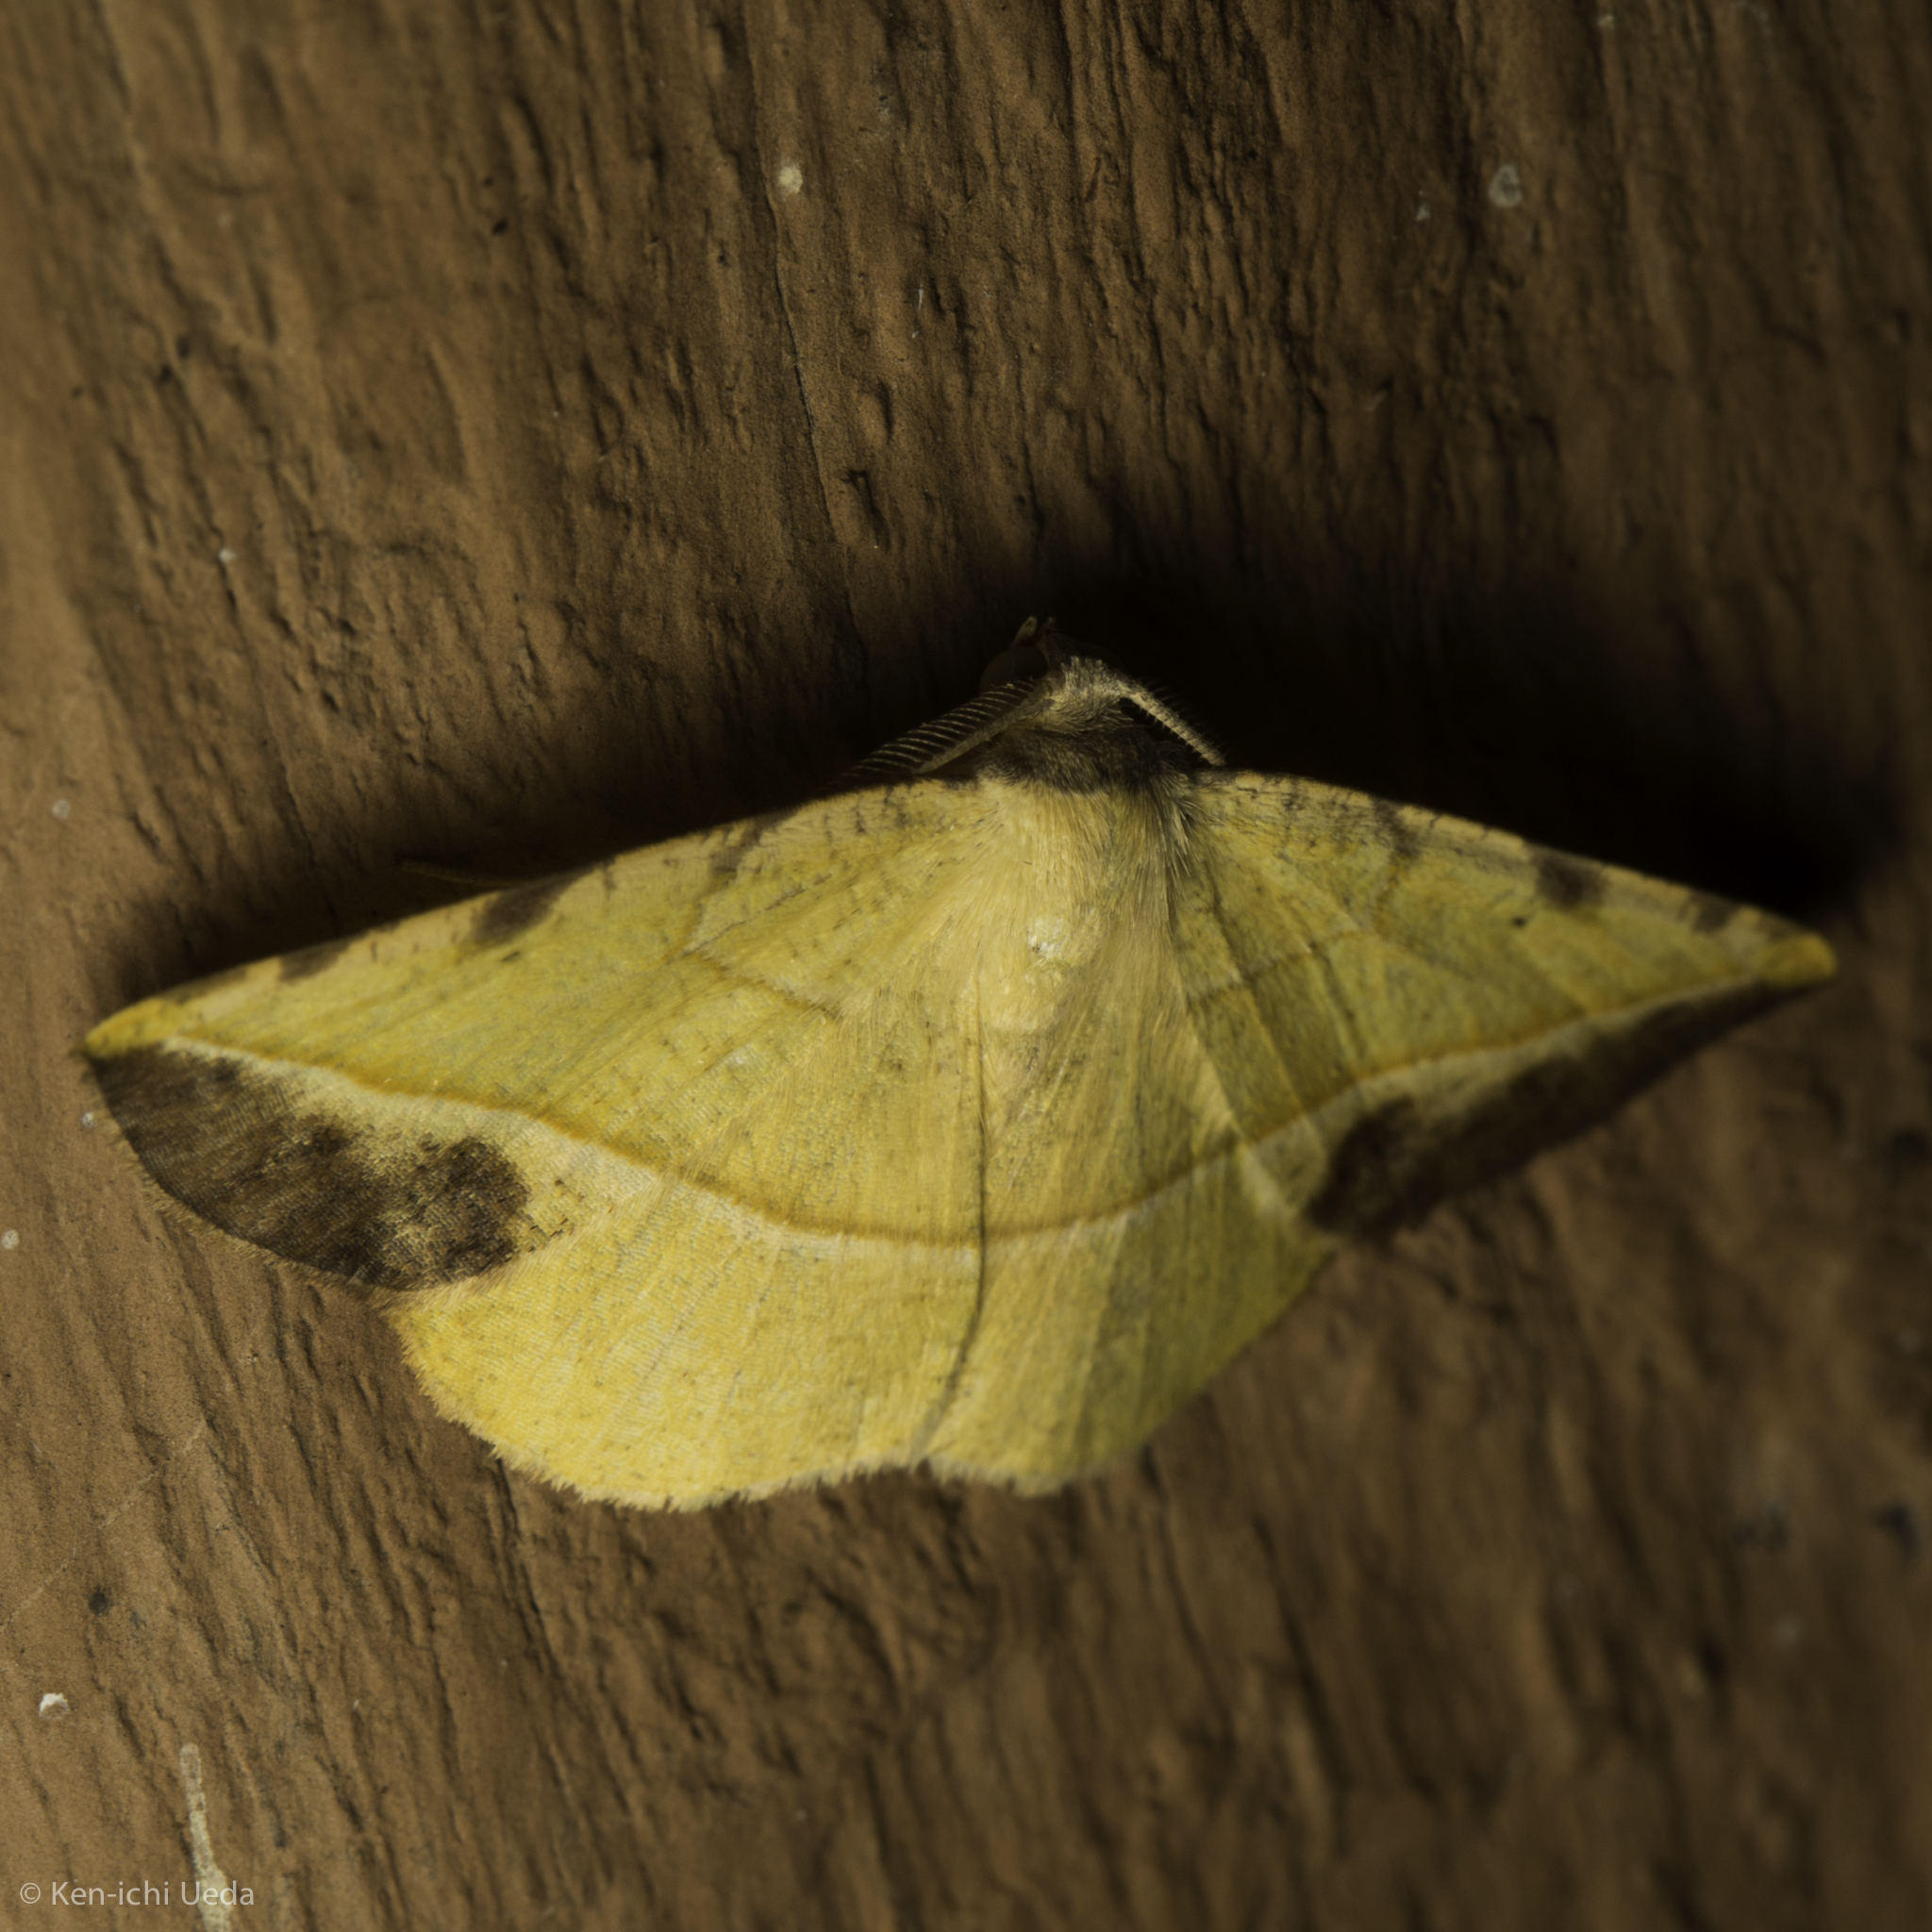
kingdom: Animalia
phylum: Arthropoda
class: Insecta
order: Lepidoptera
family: Geometridae
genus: Eusarca
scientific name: Eusarca asteria
